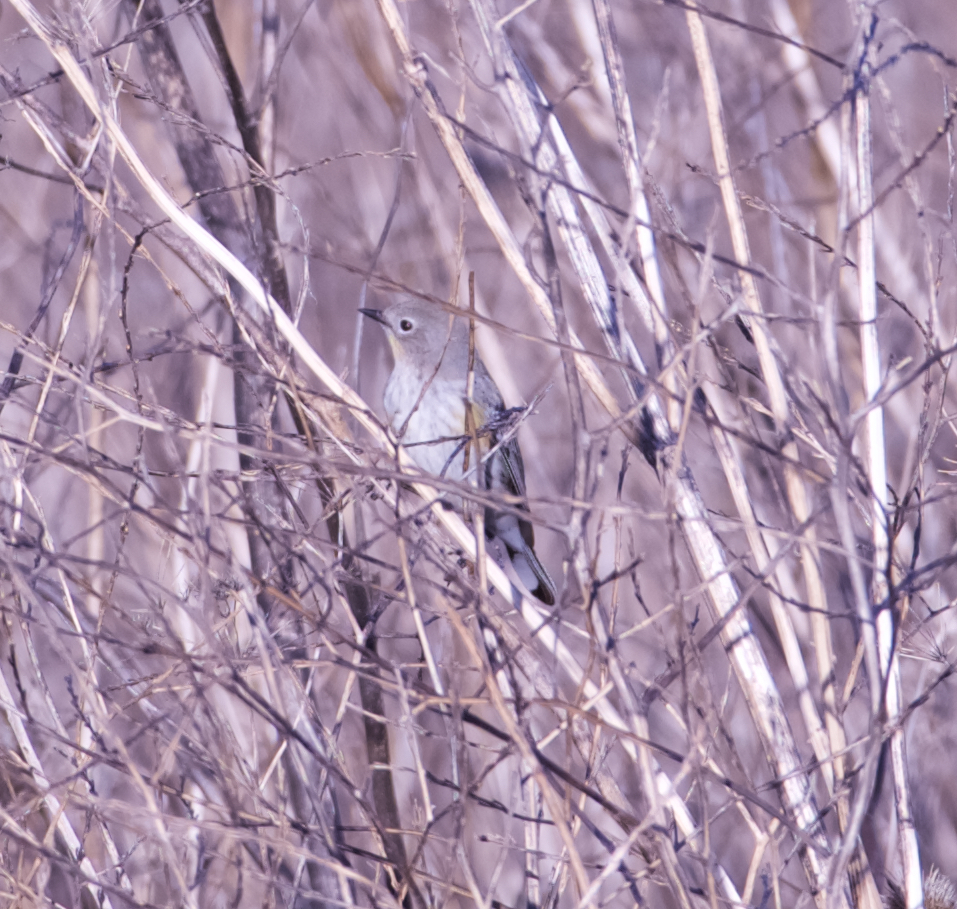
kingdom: Animalia
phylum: Chordata
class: Aves
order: Passeriformes
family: Parulidae
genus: Setophaga
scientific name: Setophaga coronata
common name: Myrtle warbler
